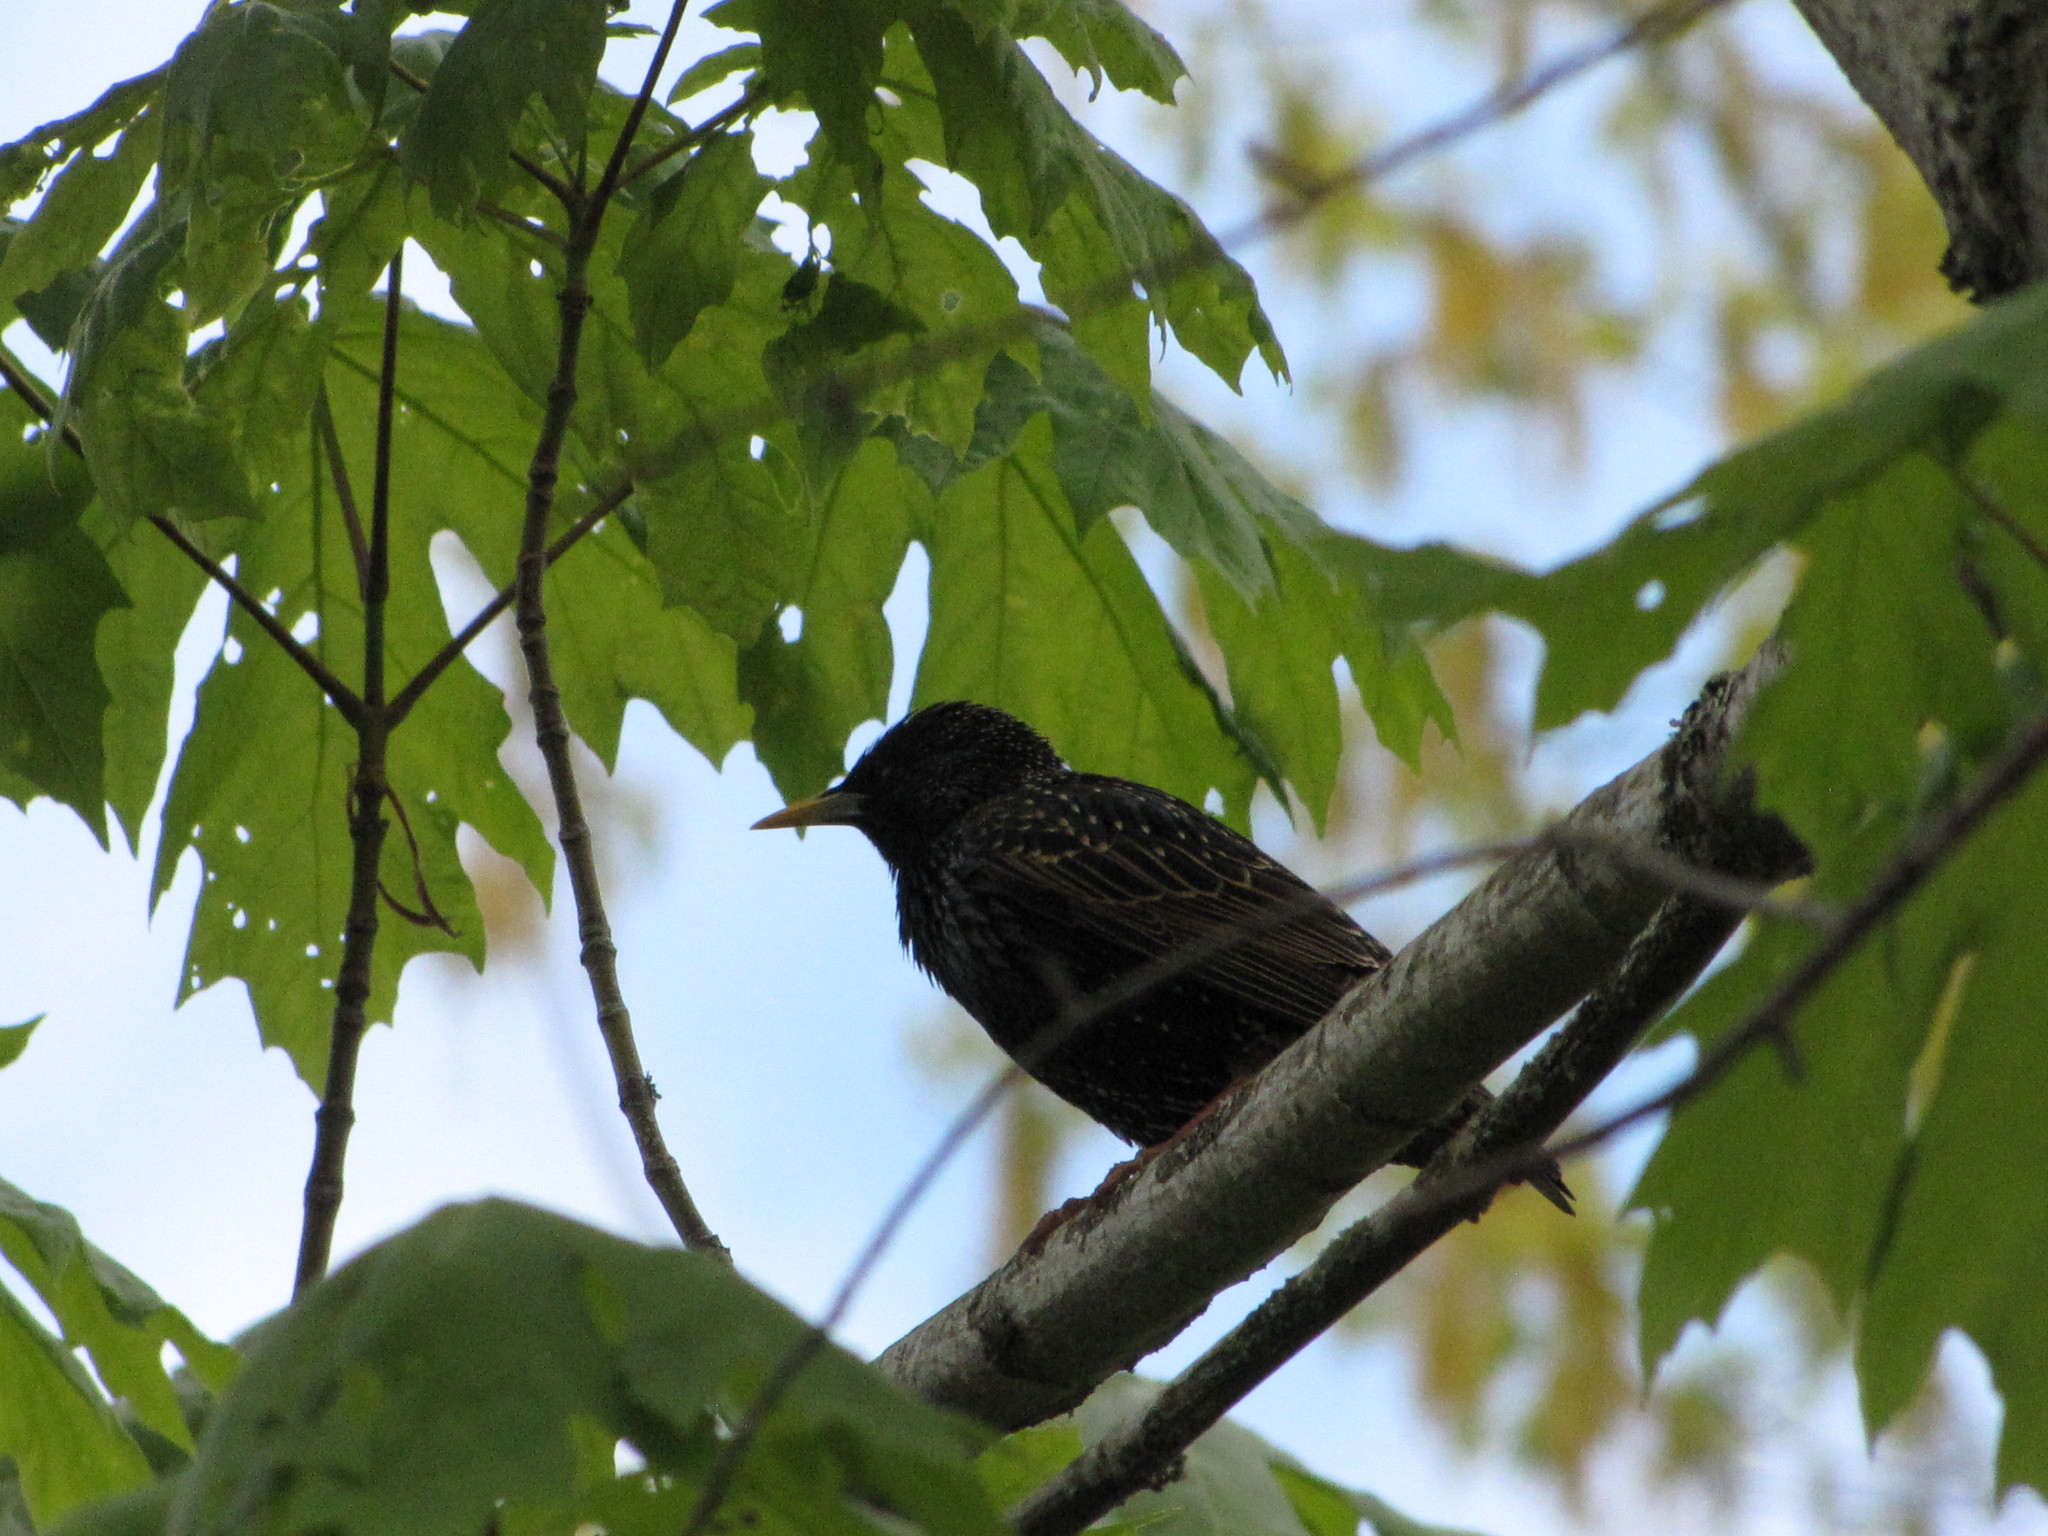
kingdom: Animalia
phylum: Chordata
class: Aves
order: Passeriformes
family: Sturnidae
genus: Sturnus
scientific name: Sturnus vulgaris
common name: Common starling
